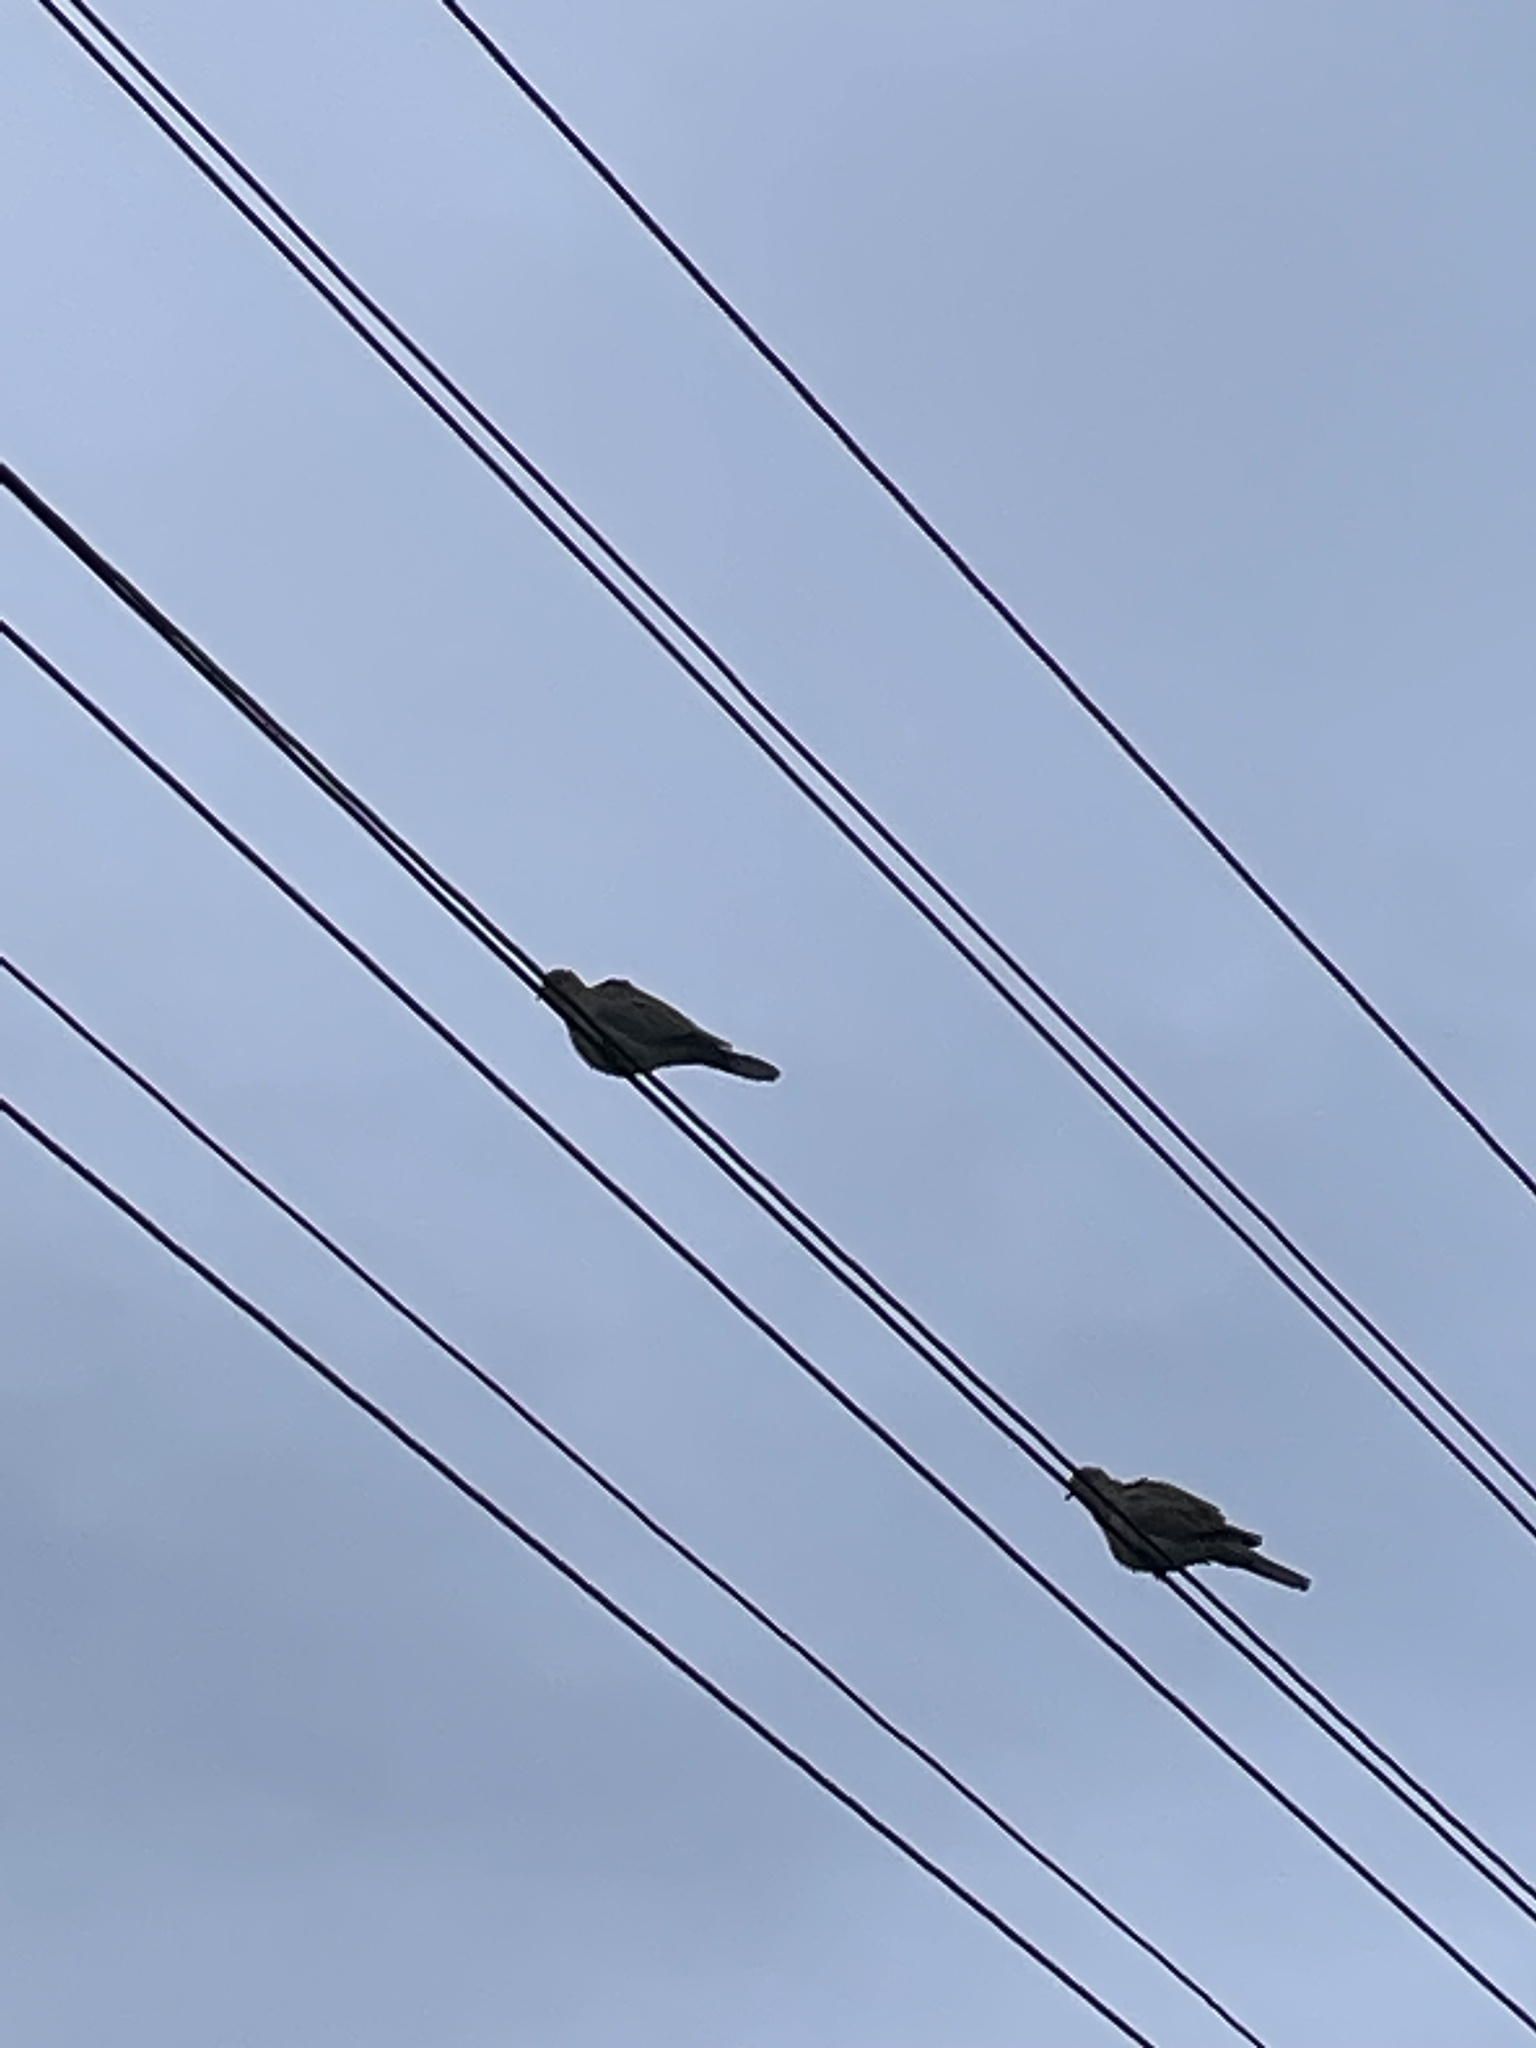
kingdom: Animalia
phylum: Chordata
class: Aves
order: Columbiformes
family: Columbidae
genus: Streptopelia
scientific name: Streptopelia decaocto
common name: Eurasian collared dove
